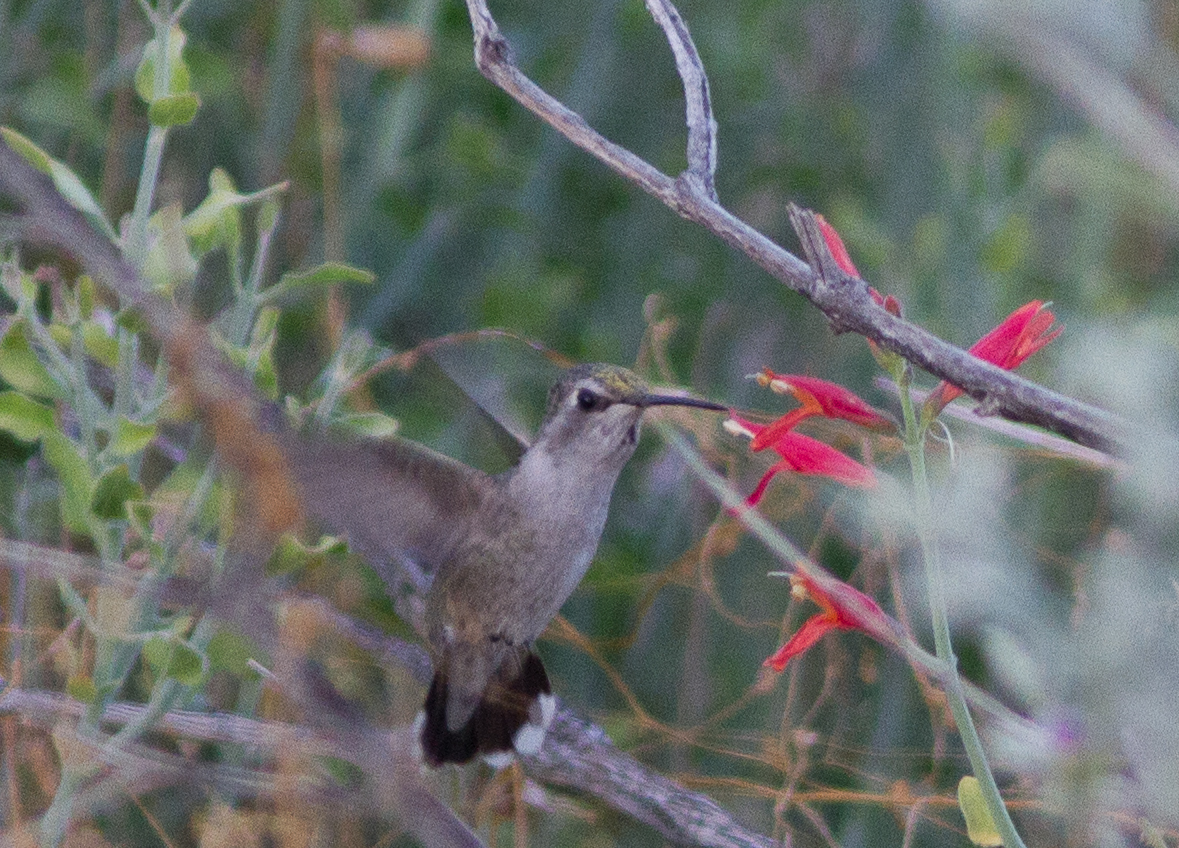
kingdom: Animalia
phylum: Chordata
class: Aves
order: Apodiformes
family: Trochilidae
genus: Calypte
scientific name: Calypte costae
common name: Costa's hummingbird
